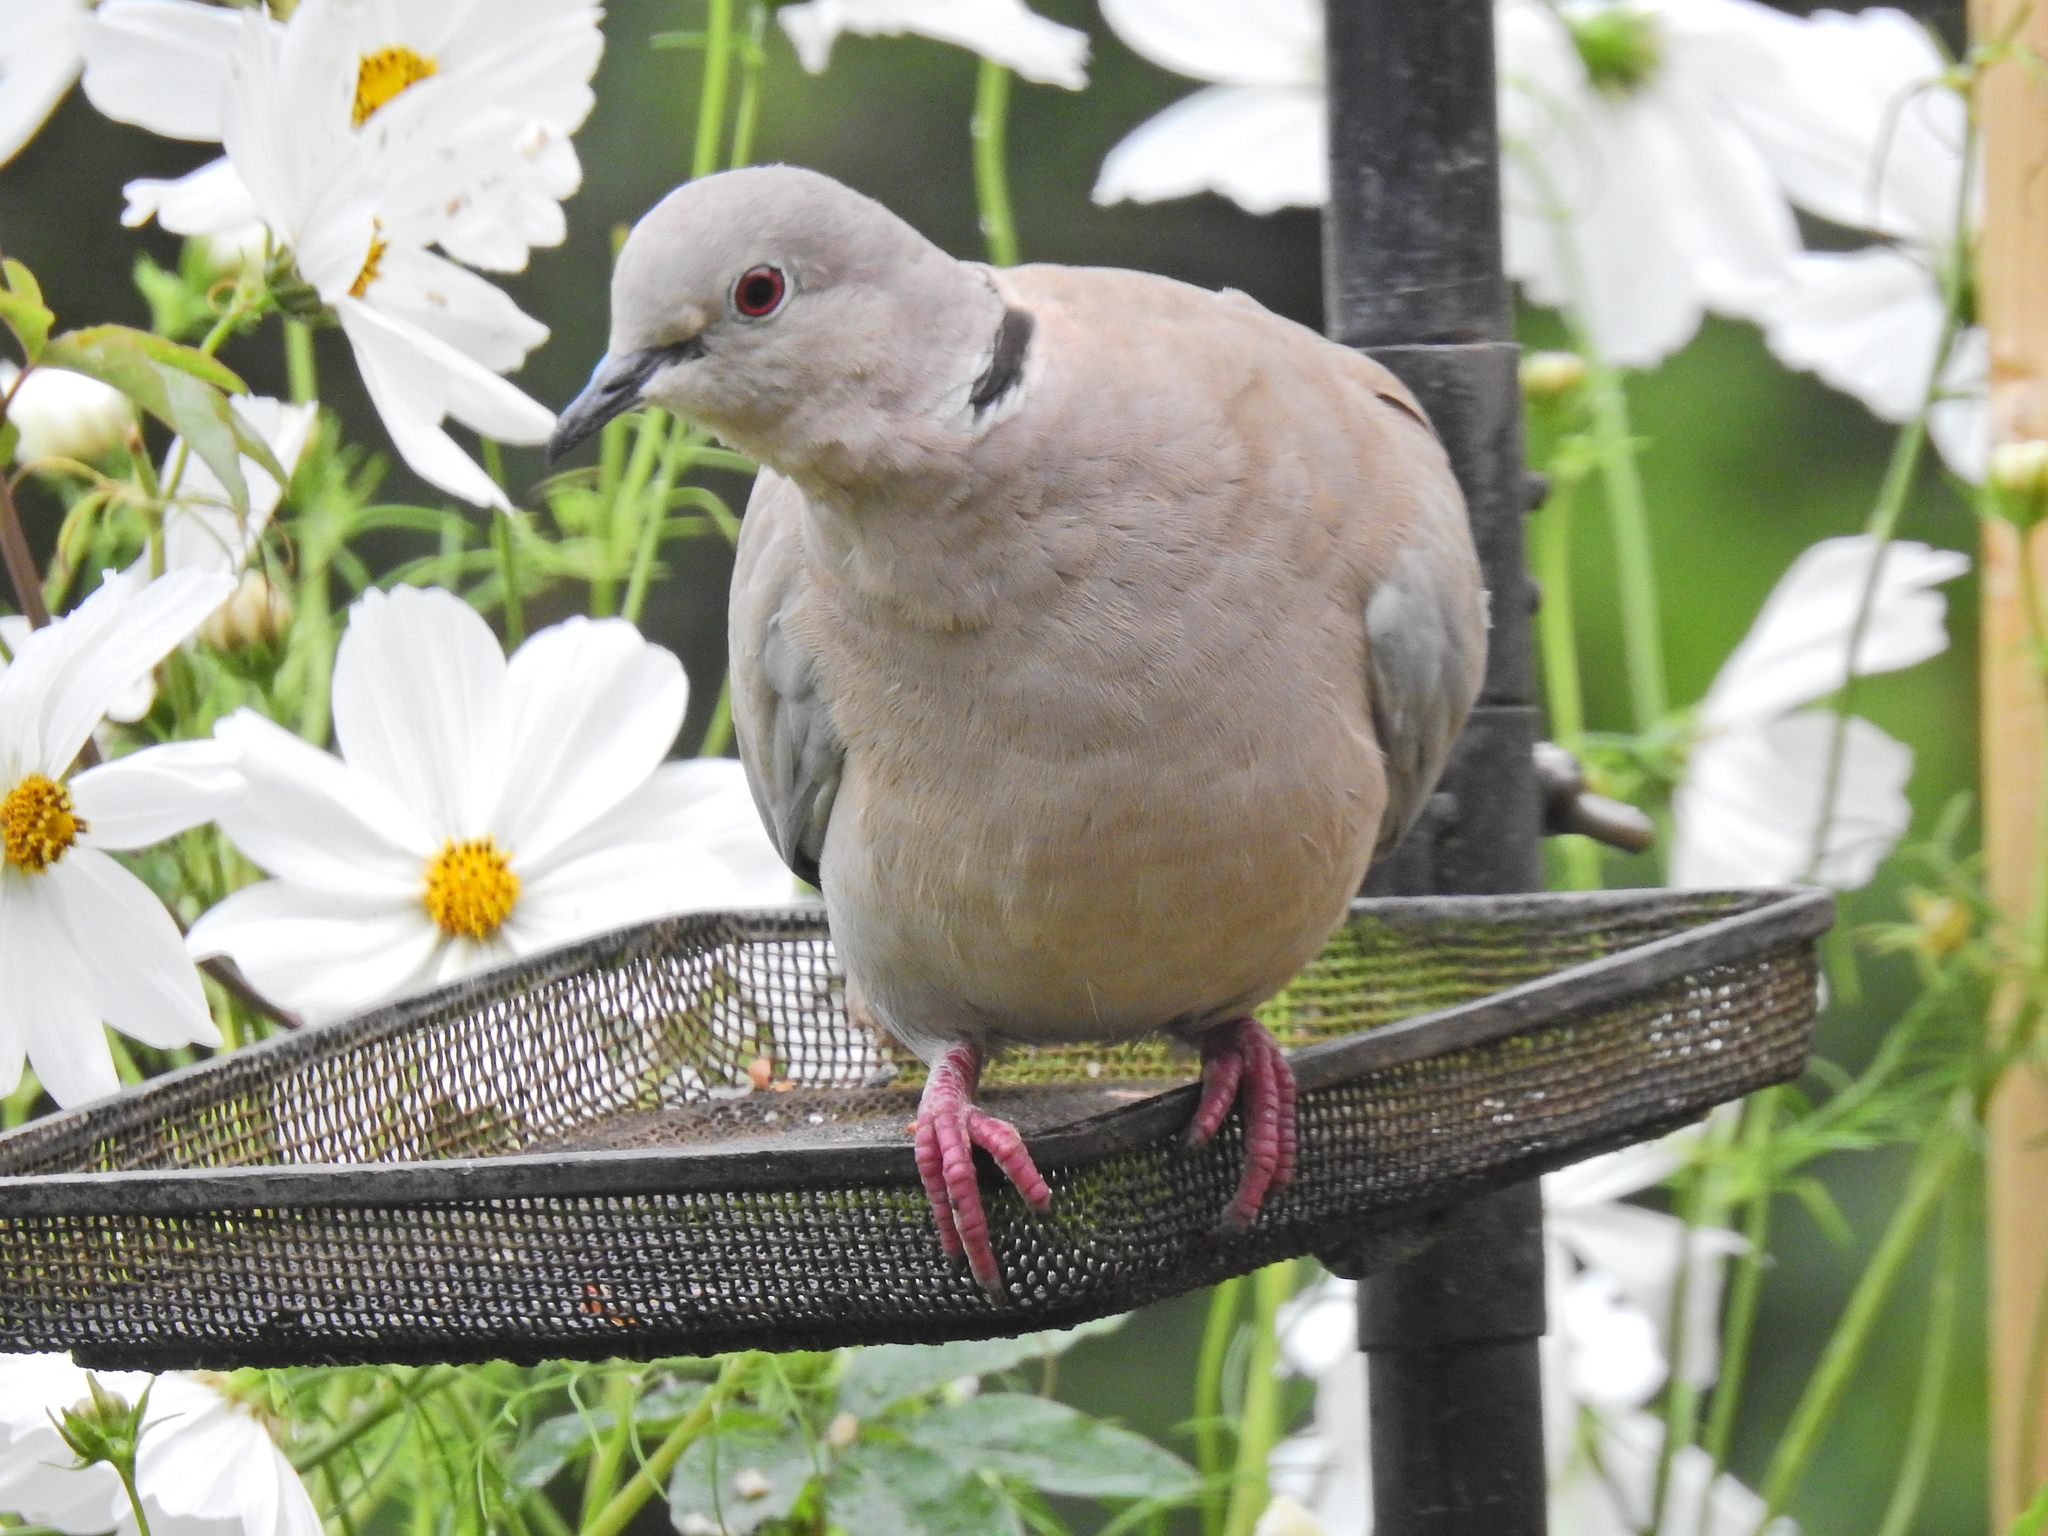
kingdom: Animalia
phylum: Chordata
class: Aves
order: Columbiformes
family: Columbidae
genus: Streptopelia
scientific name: Streptopelia decaocto
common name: Eurasian collared dove
